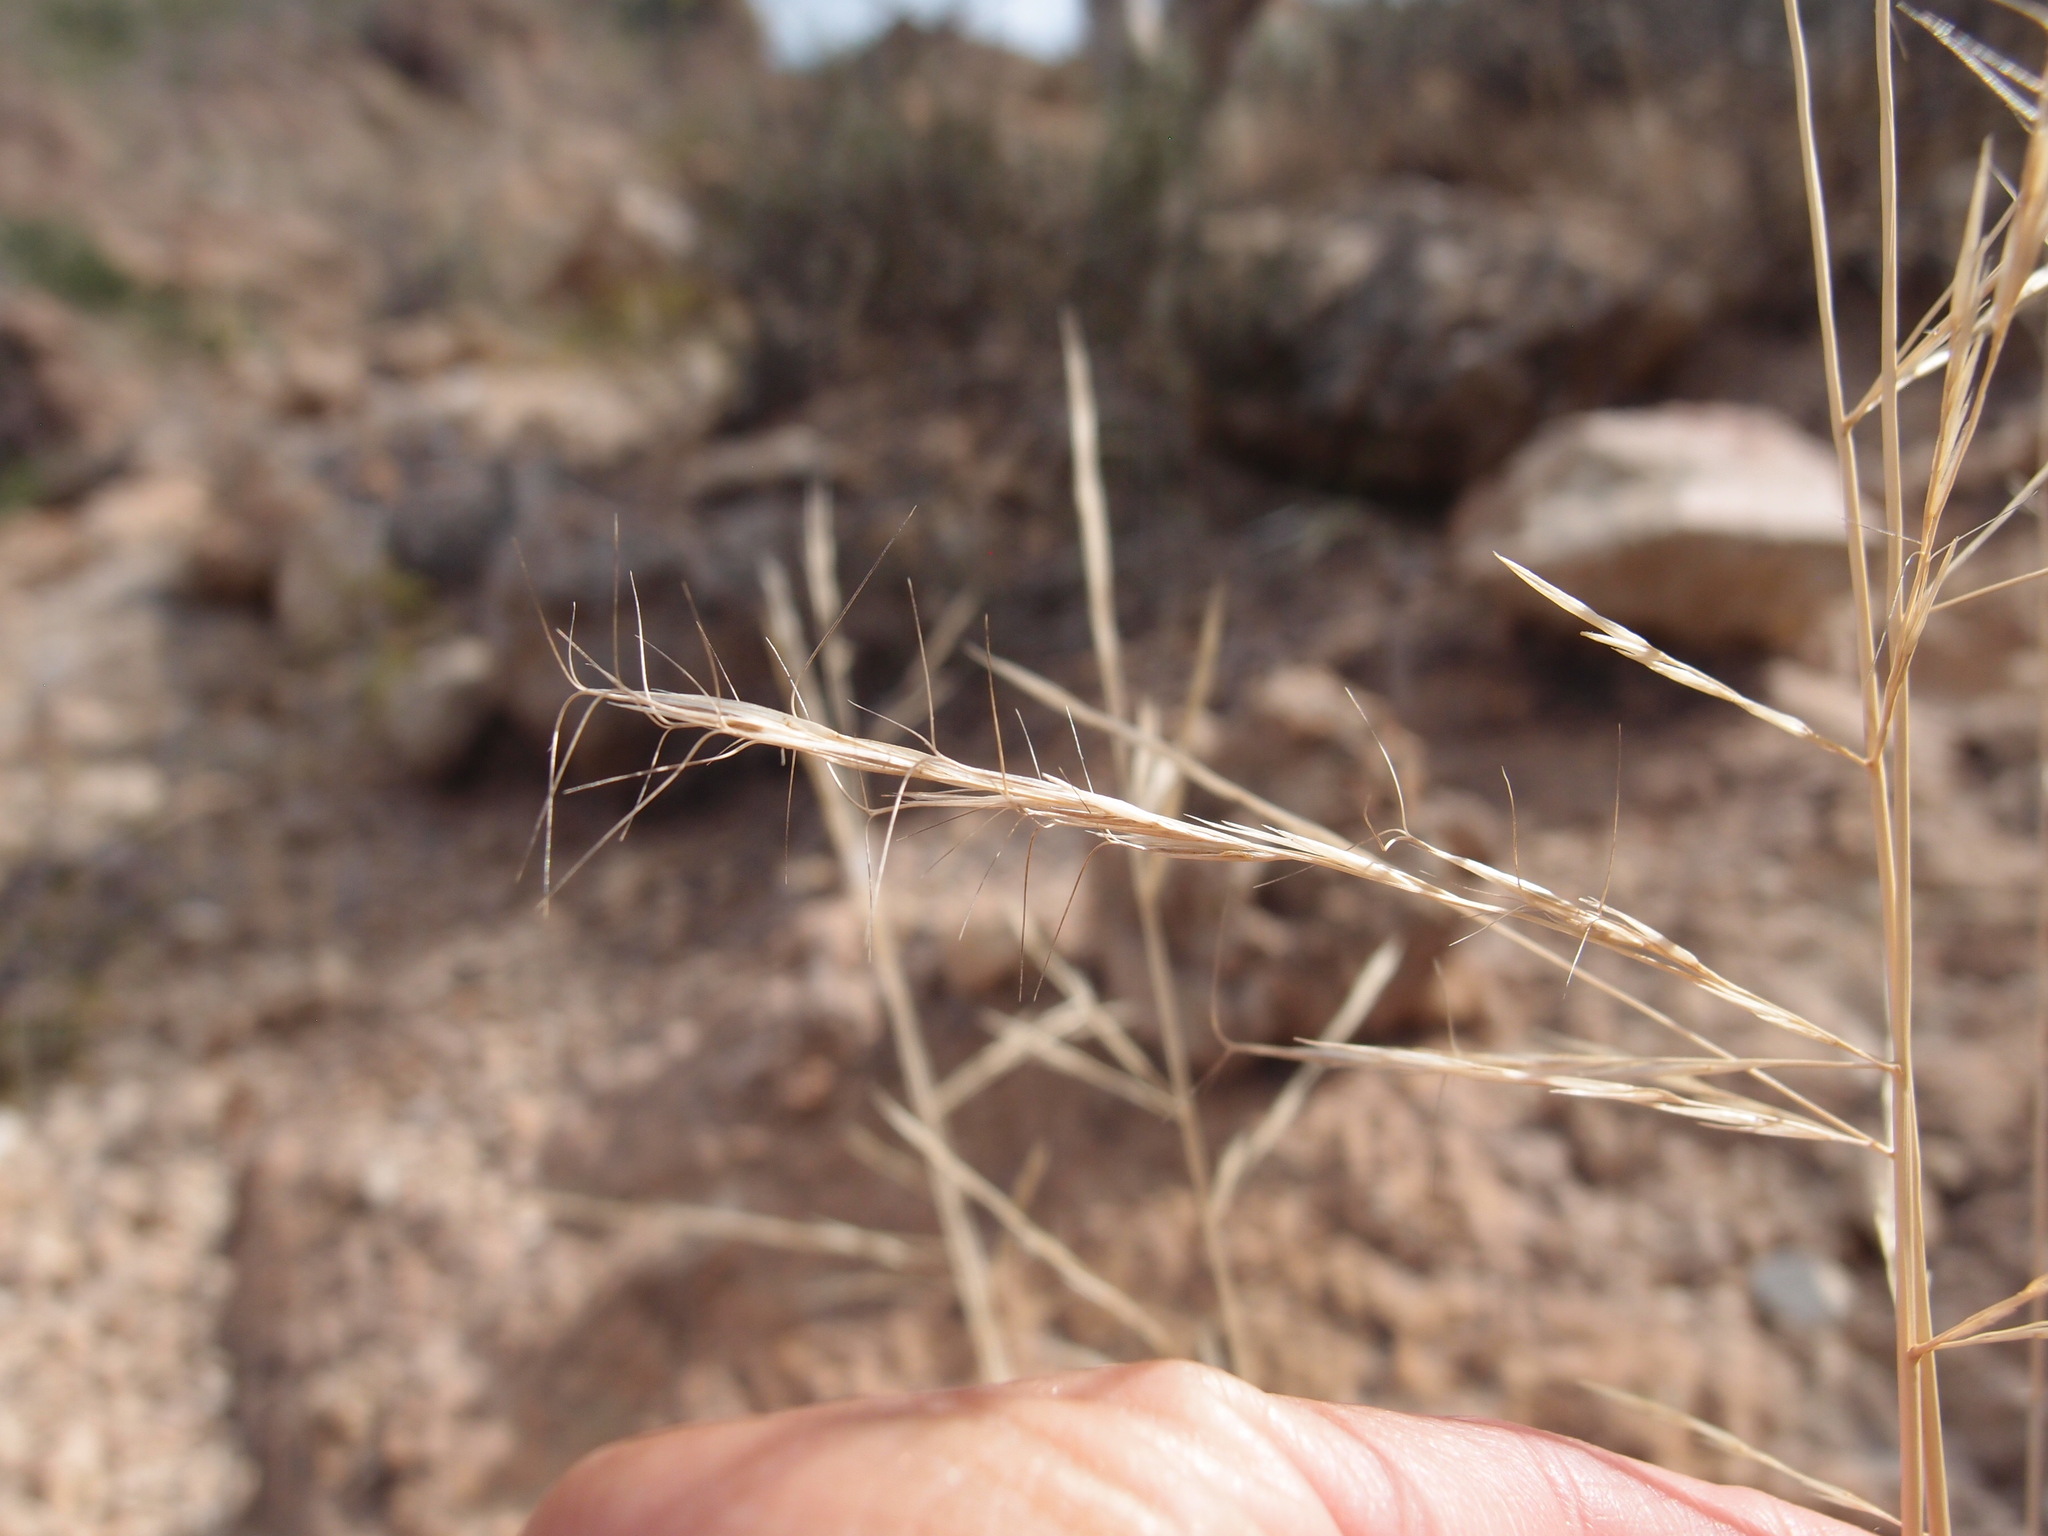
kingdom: Plantae
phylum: Tracheophyta
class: Liliopsida
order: Poales
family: Poaceae
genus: Aristida
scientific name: Aristida divaricata
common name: Poverty grass
